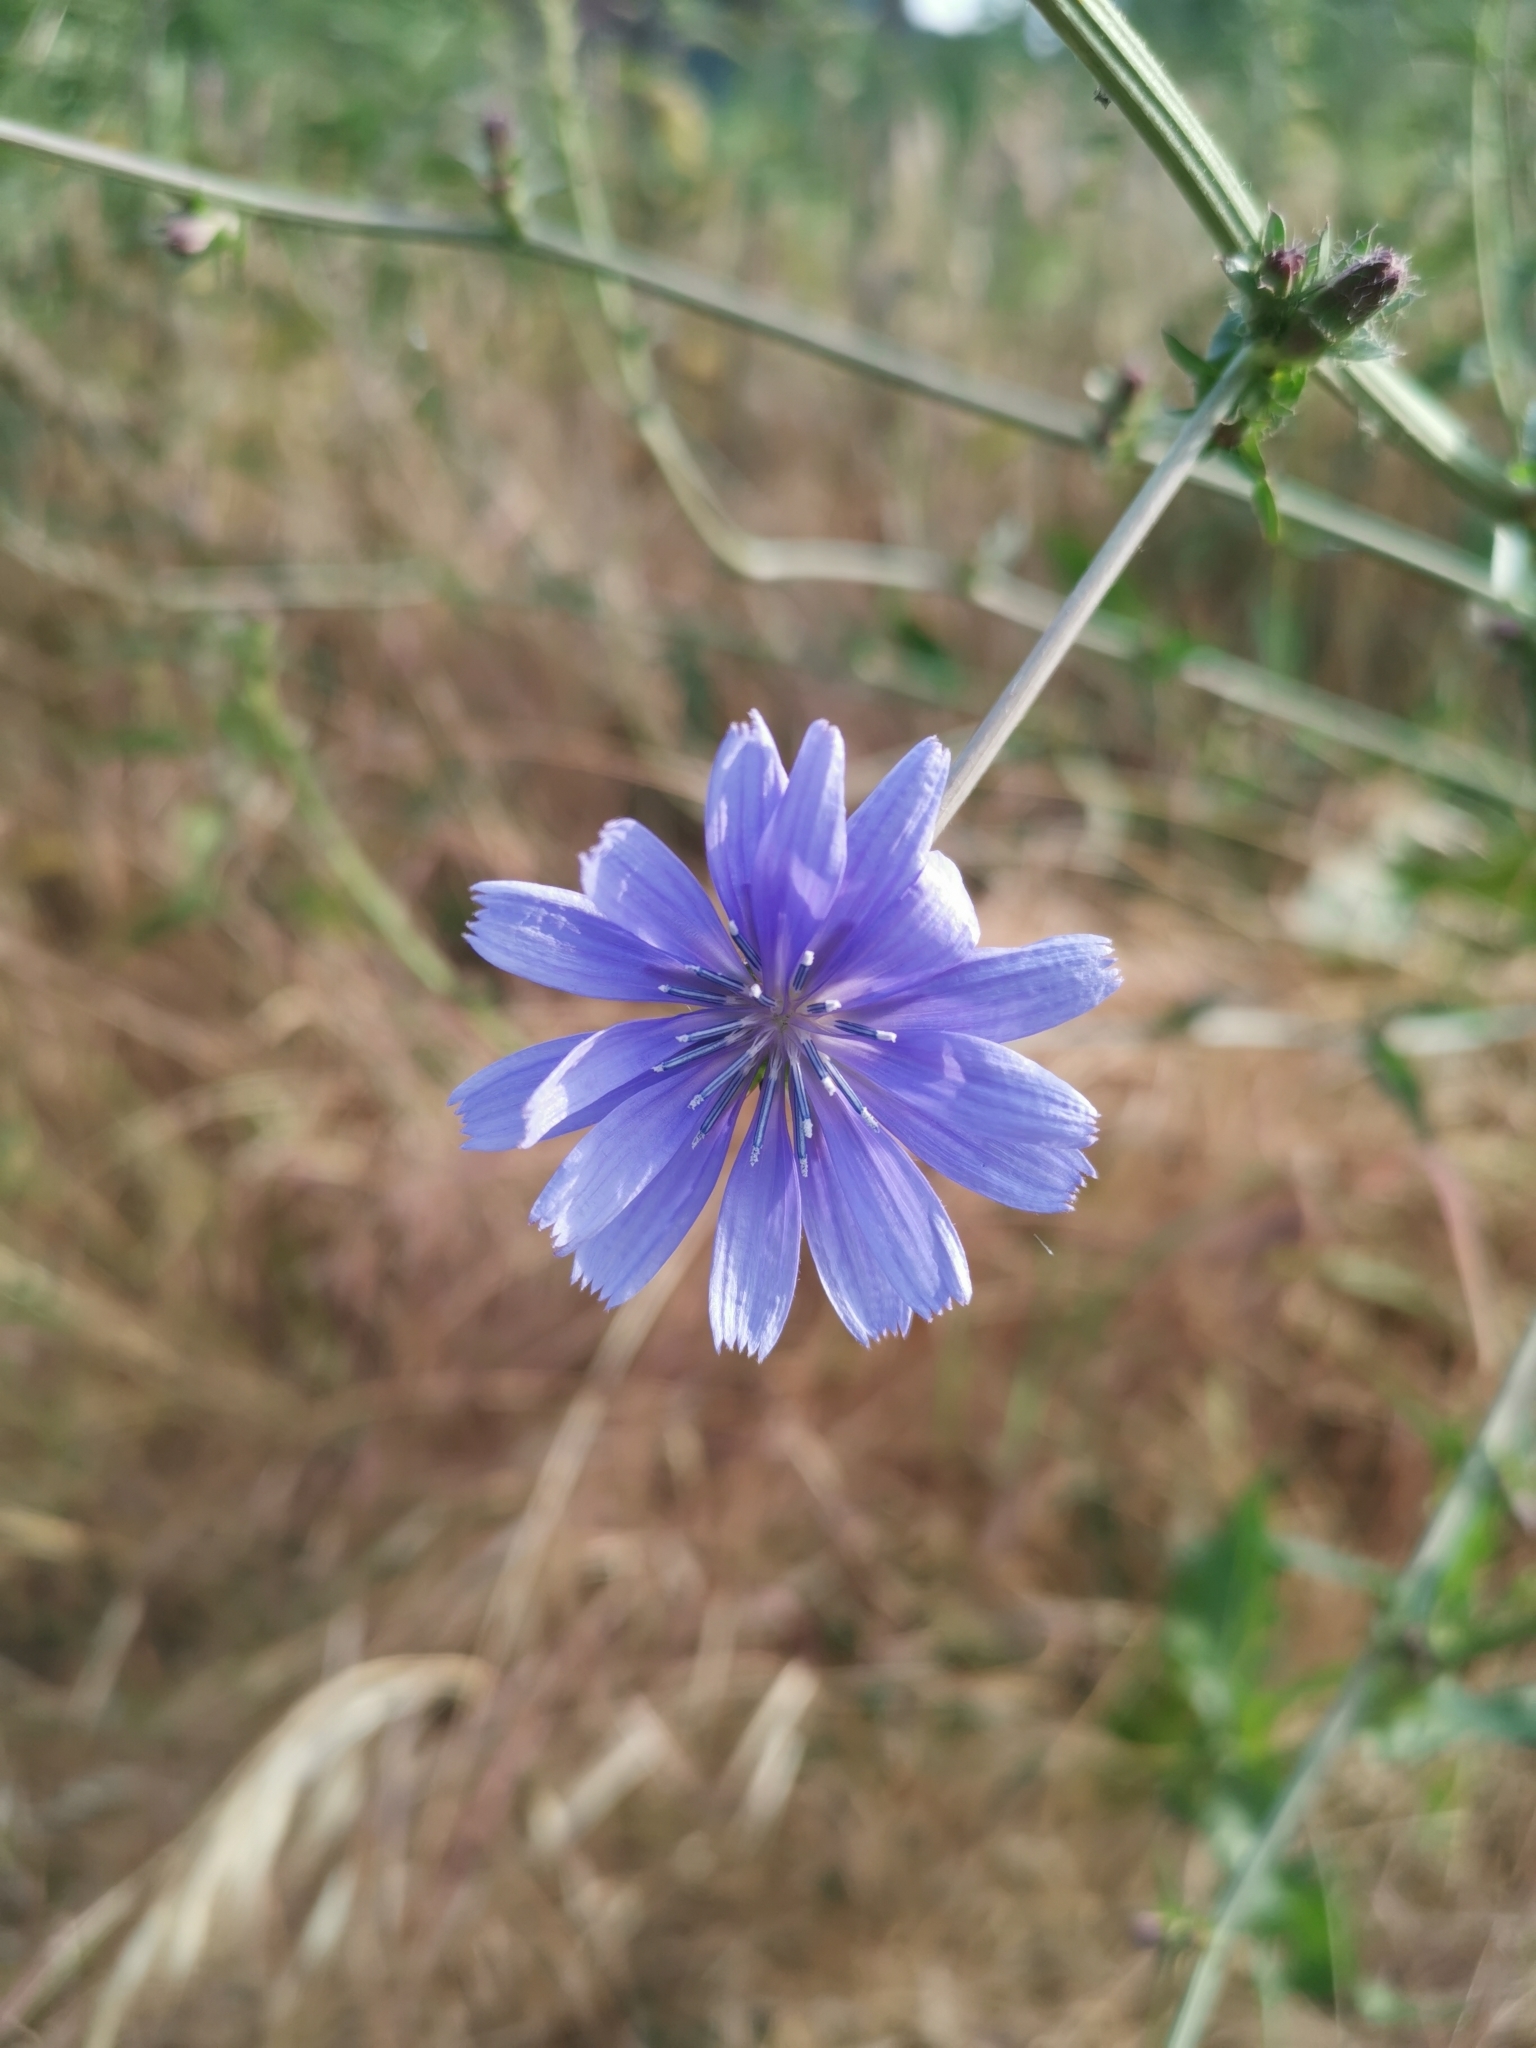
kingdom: Plantae
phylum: Tracheophyta
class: Magnoliopsida
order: Asterales
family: Asteraceae
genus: Cichorium
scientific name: Cichorium intybus
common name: Chicory
